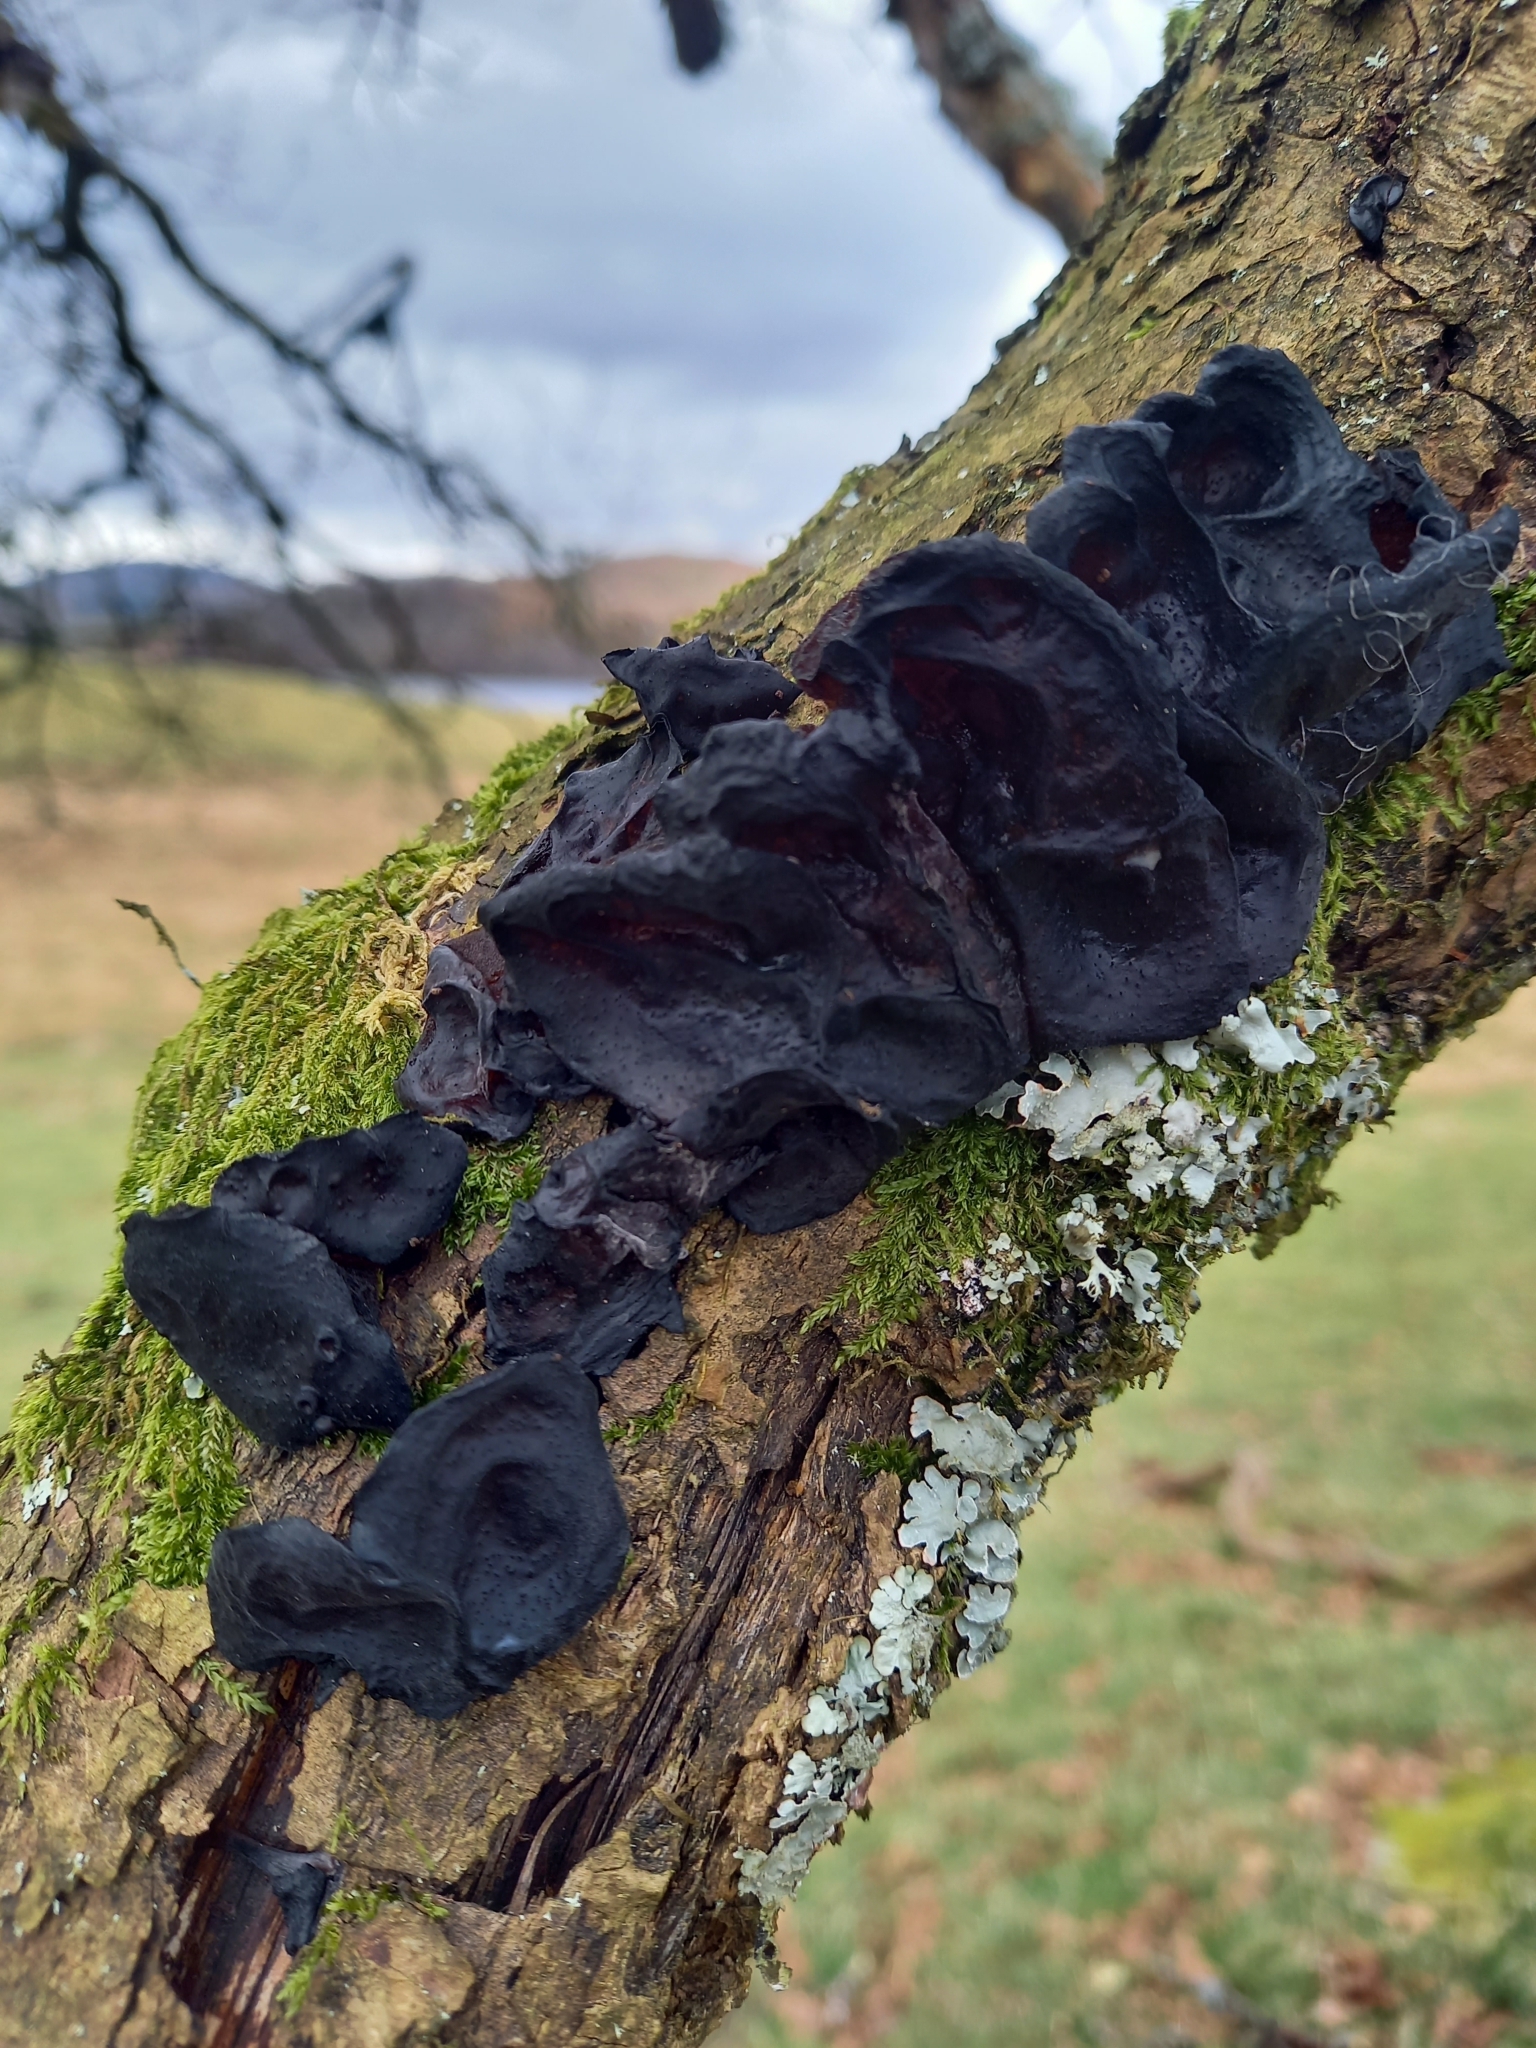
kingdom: Fungi
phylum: Basidiomycota
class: Agaricomycetes
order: Auriculariales
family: Auriculariaceae
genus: Exidia
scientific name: Exidia glandulosa
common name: Witches' butter
